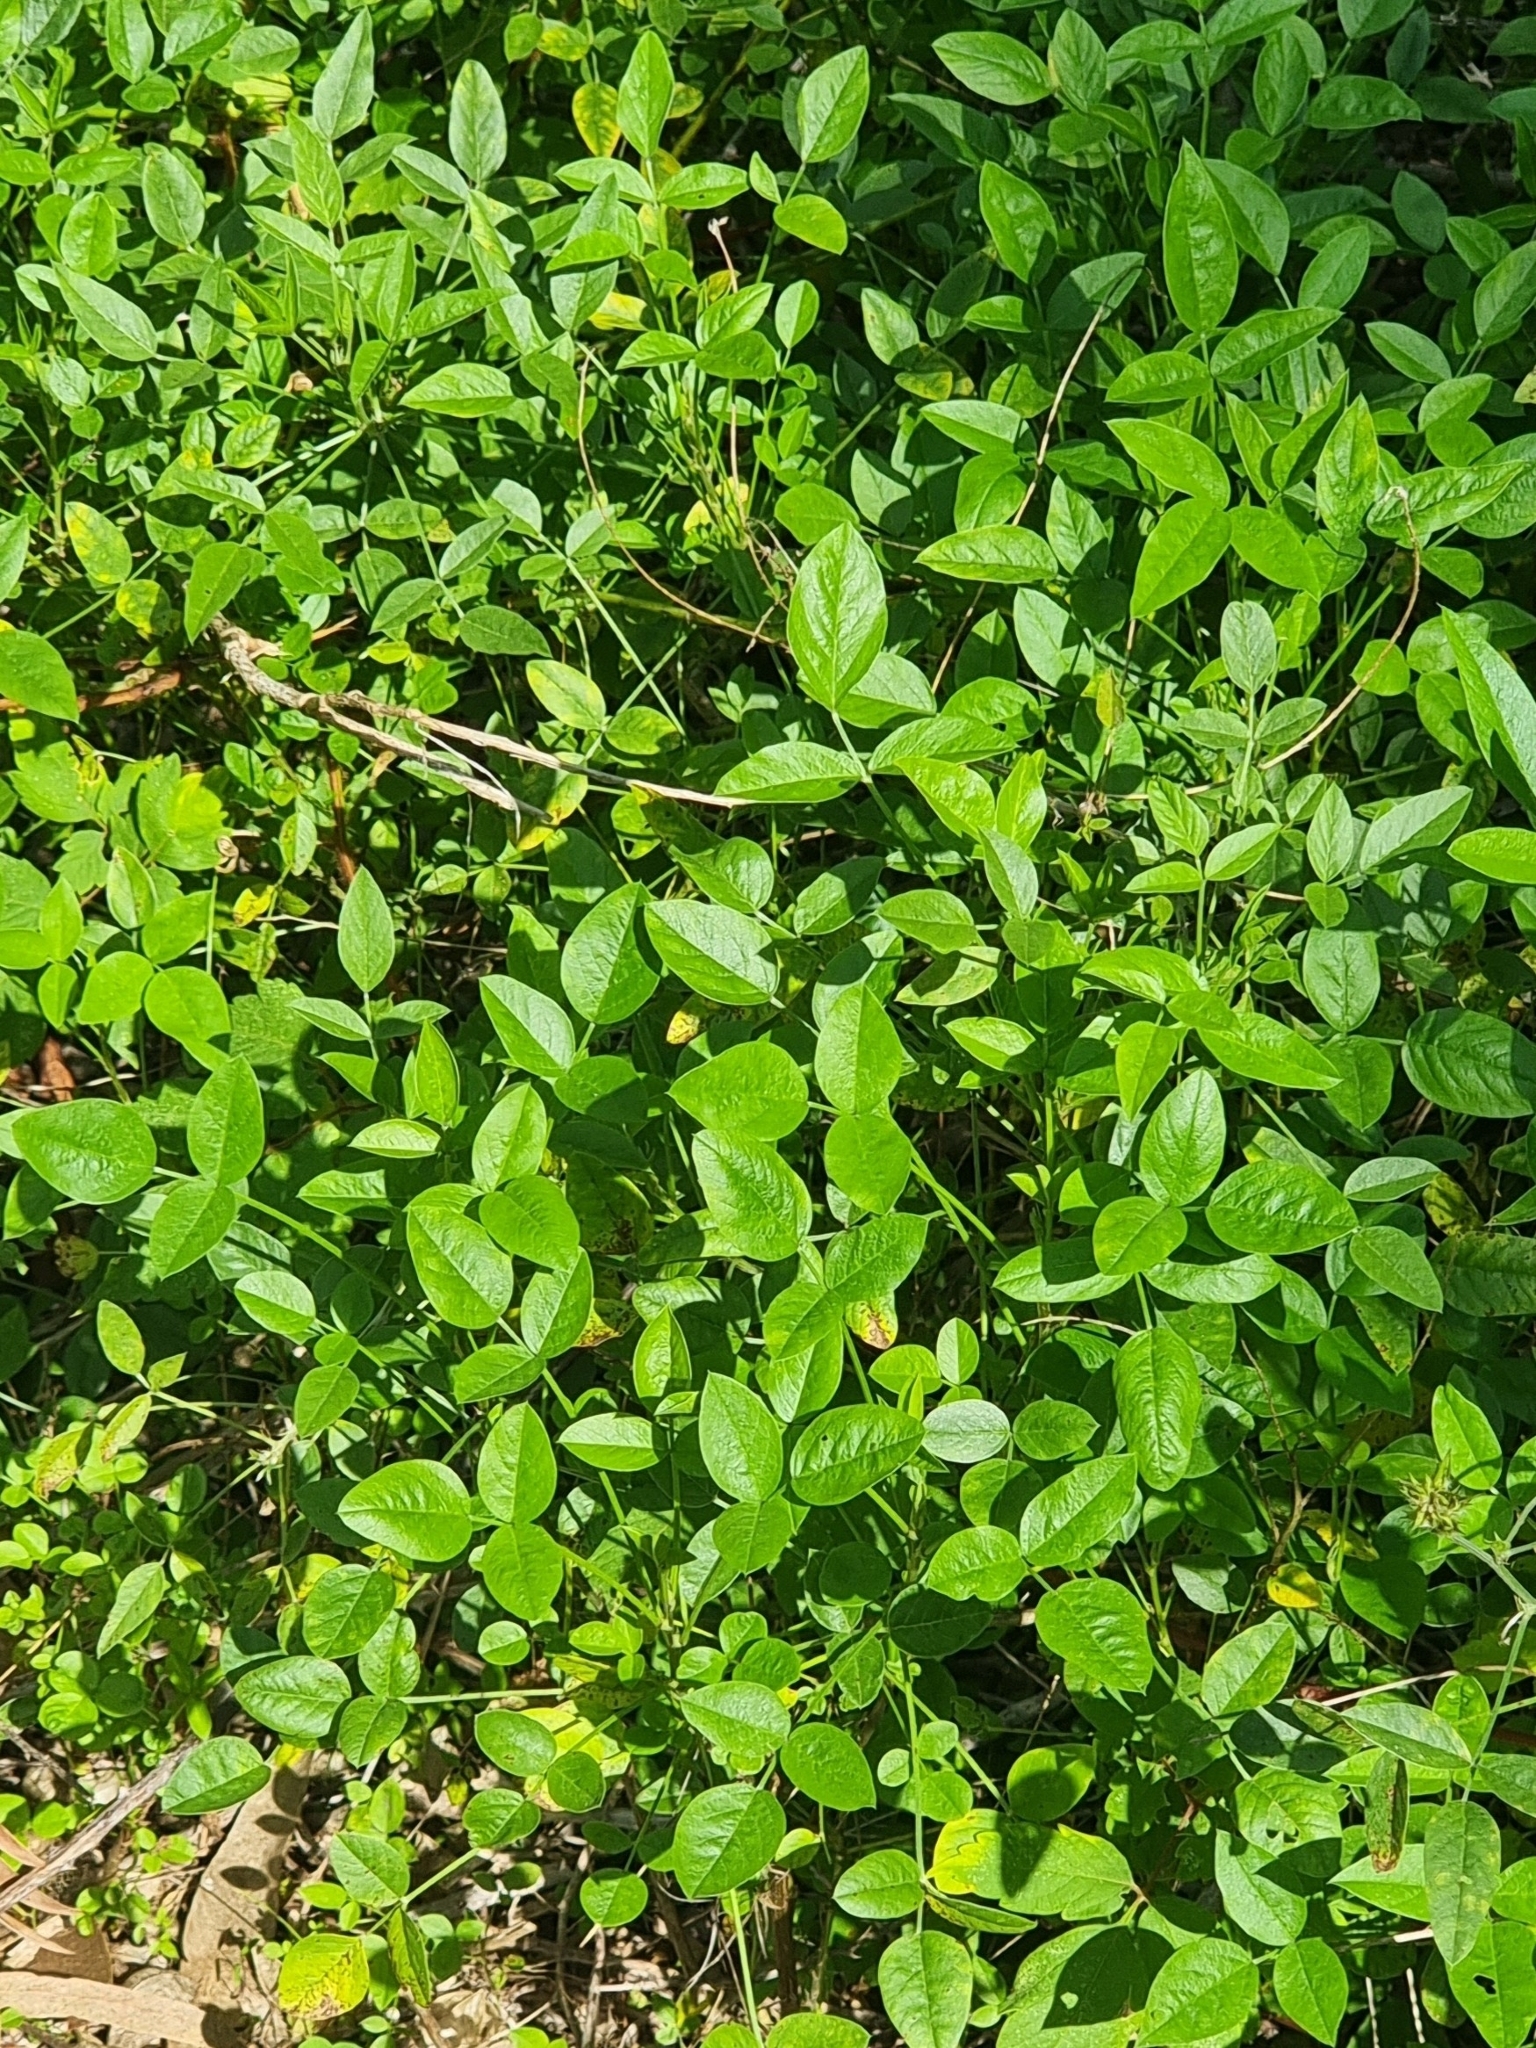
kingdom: Plantae
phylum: Tracheophyta
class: Magnoliopsida
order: Fabales
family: Fabaceae
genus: Bituminaria
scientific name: Bituminaria bituminosa
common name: Arabian pea
